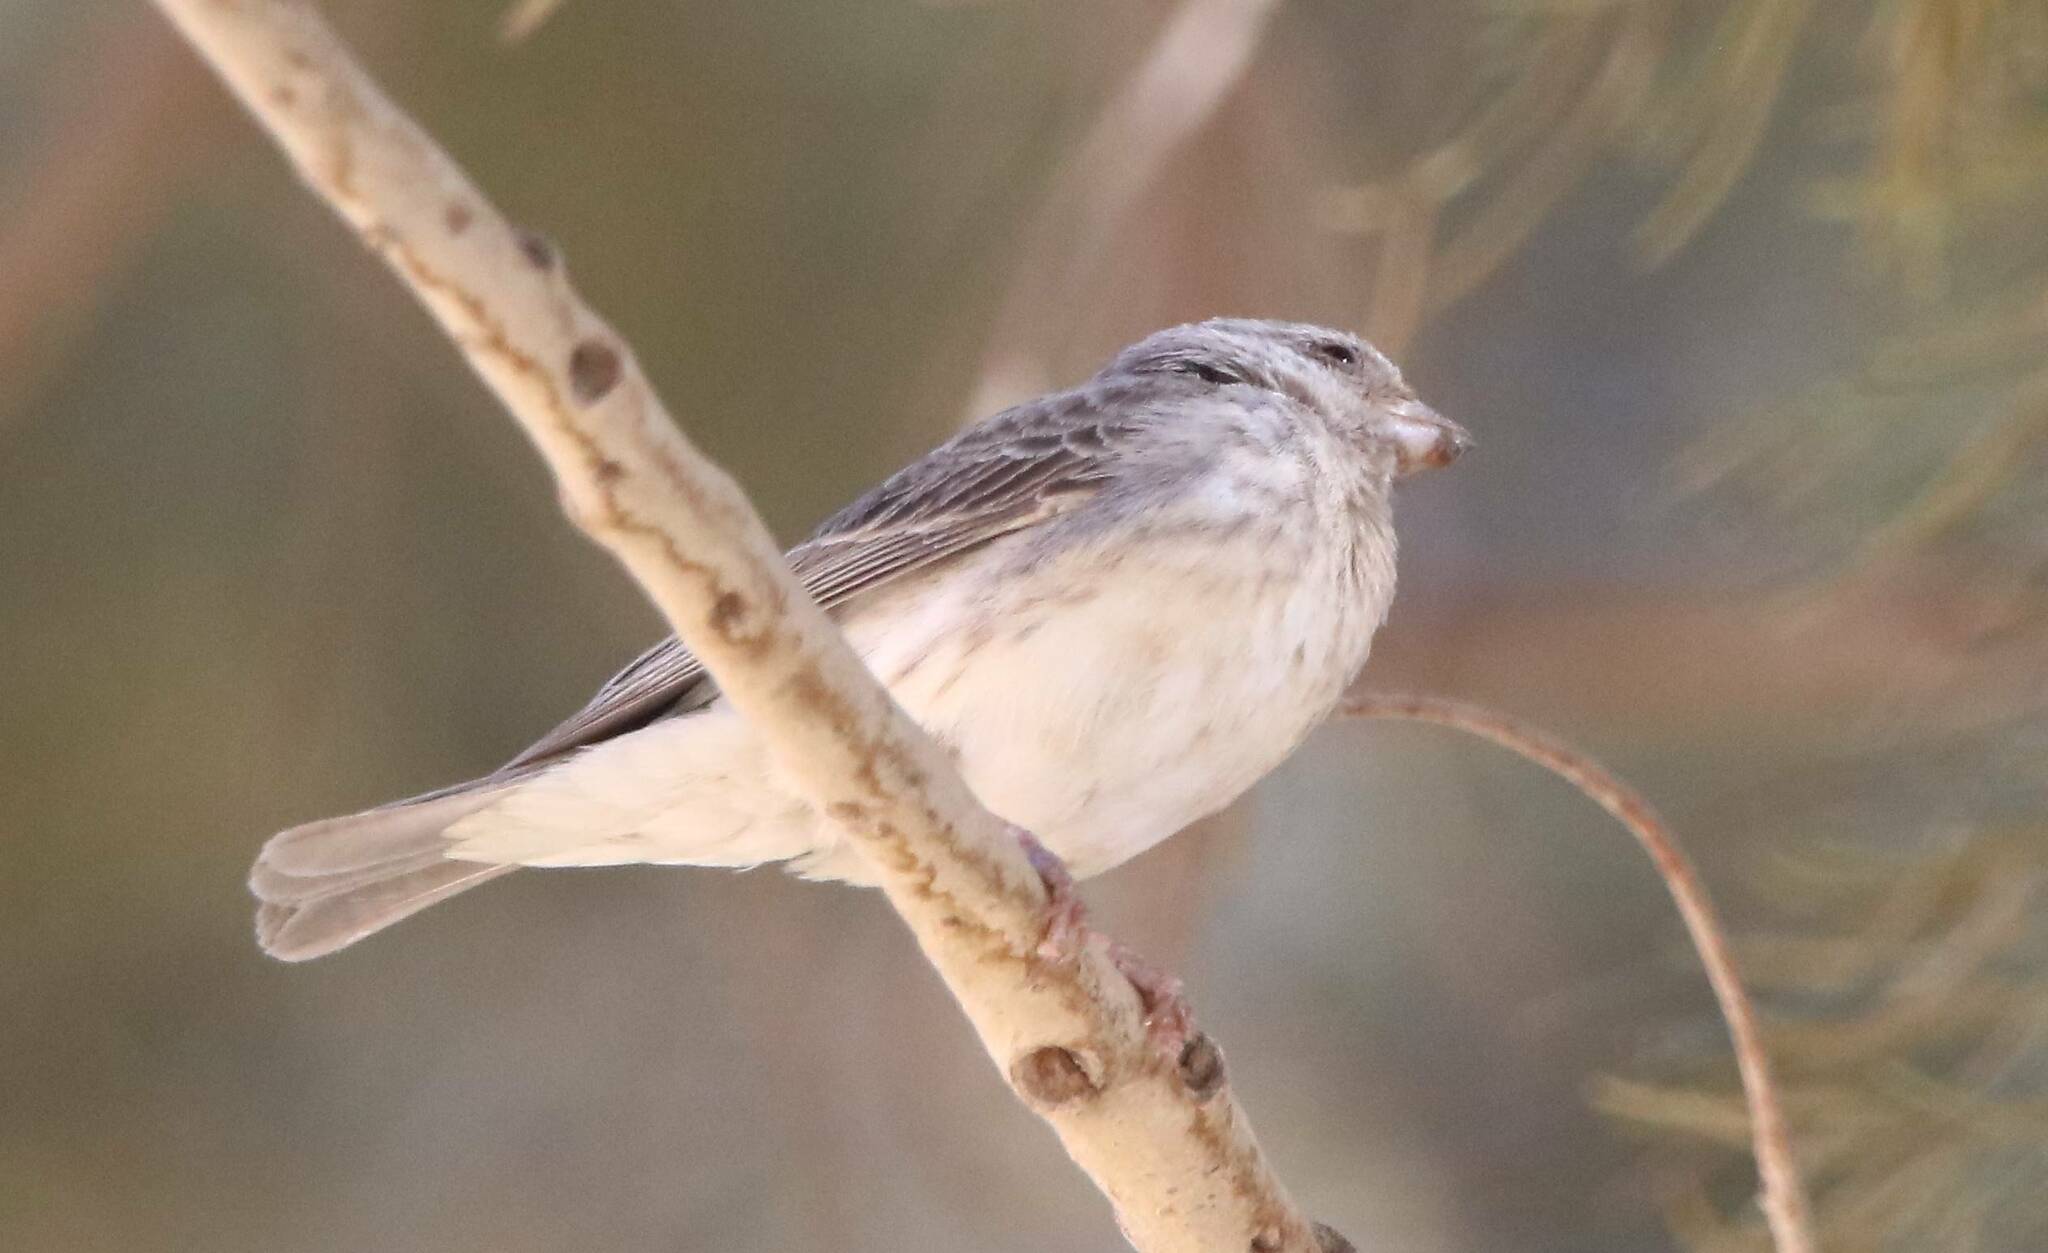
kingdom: Animalia
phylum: Chordata
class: Aves
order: Passeriformes
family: Fringillidae
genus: Crithagra
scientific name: Crithagra leucopygia
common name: White-rumped seedeater
